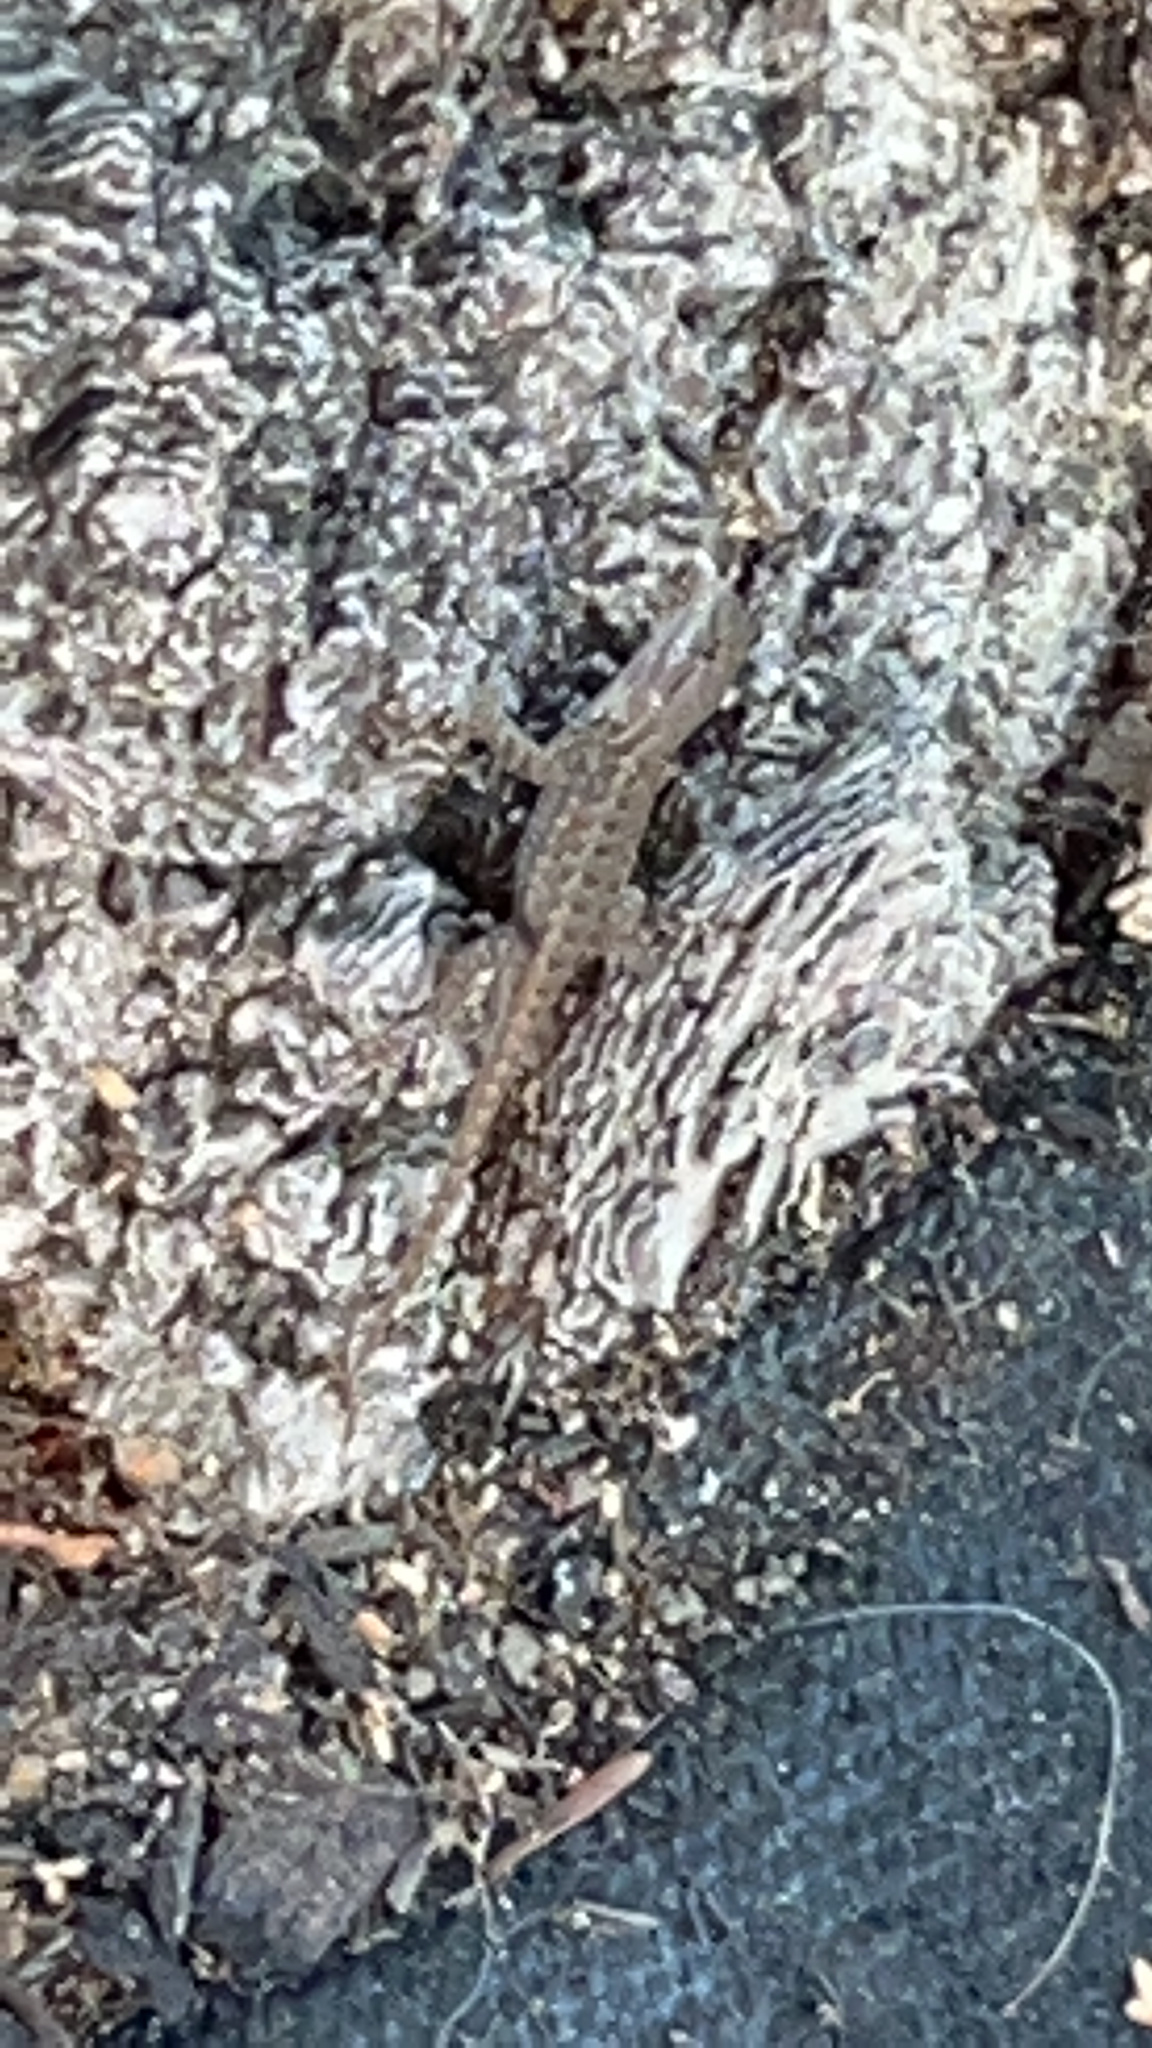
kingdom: Animalia
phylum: Chordata
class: Squamata
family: Phrynosomatidae
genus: Sceloporus
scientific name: Sceloporus occidentalis
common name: Western fence lizard
